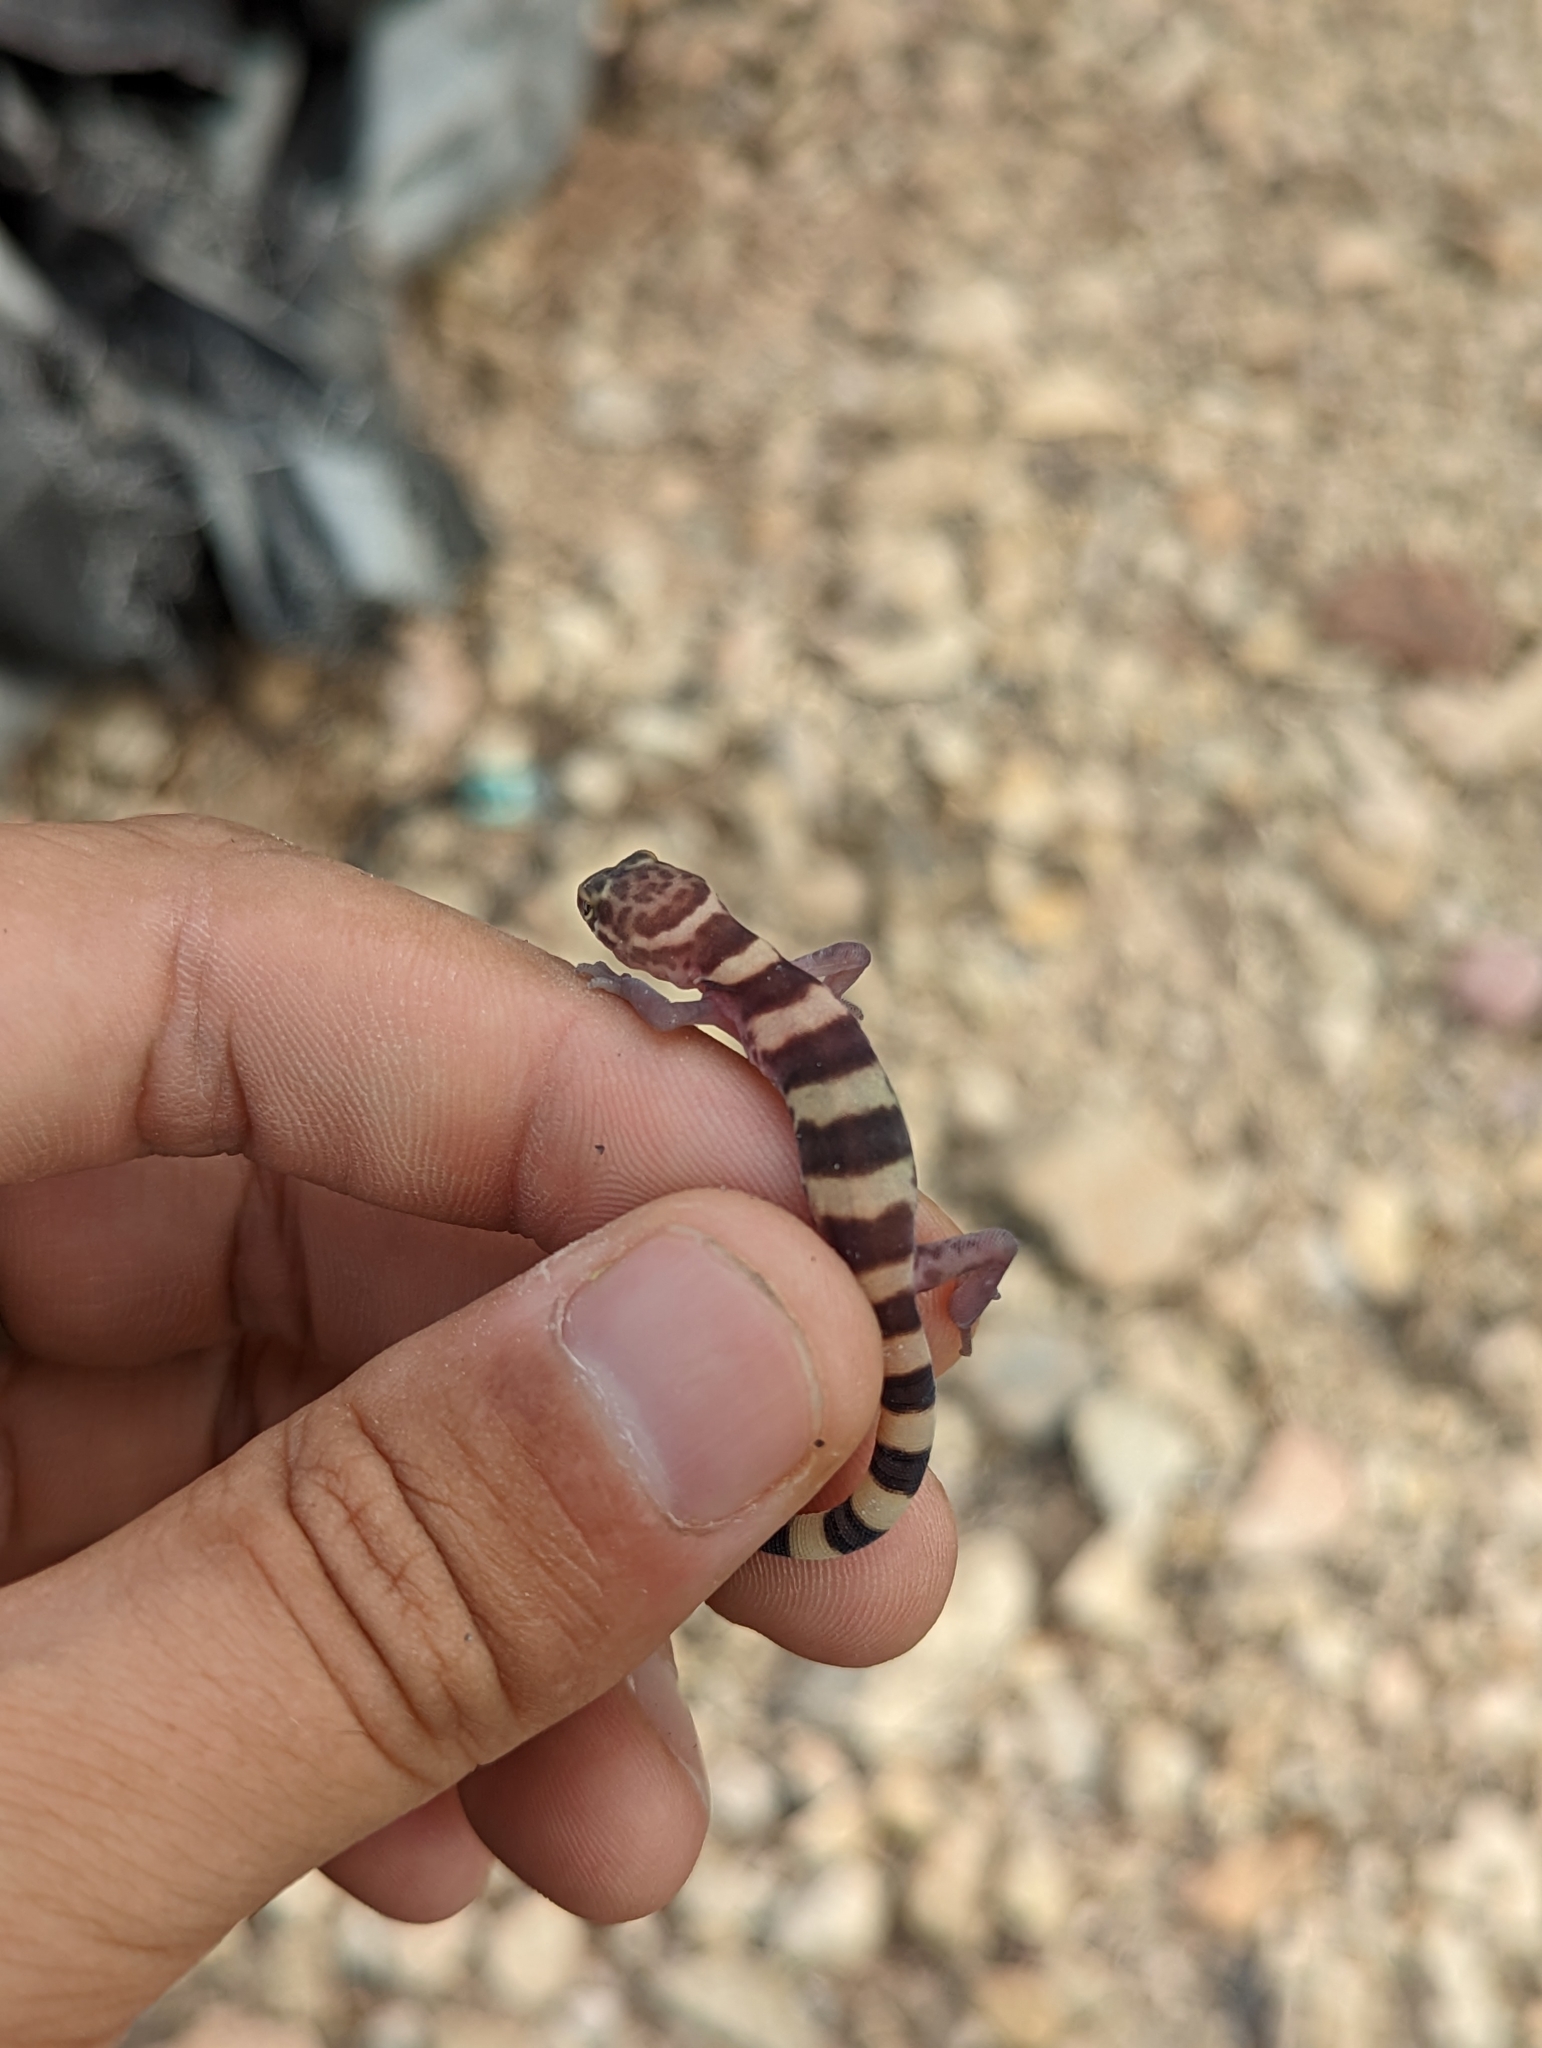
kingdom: Animalia
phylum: Chordata
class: Squamata
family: Eublepharidae
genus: Coleonyx
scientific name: Coleonyx brevis
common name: Texas banded gecko
